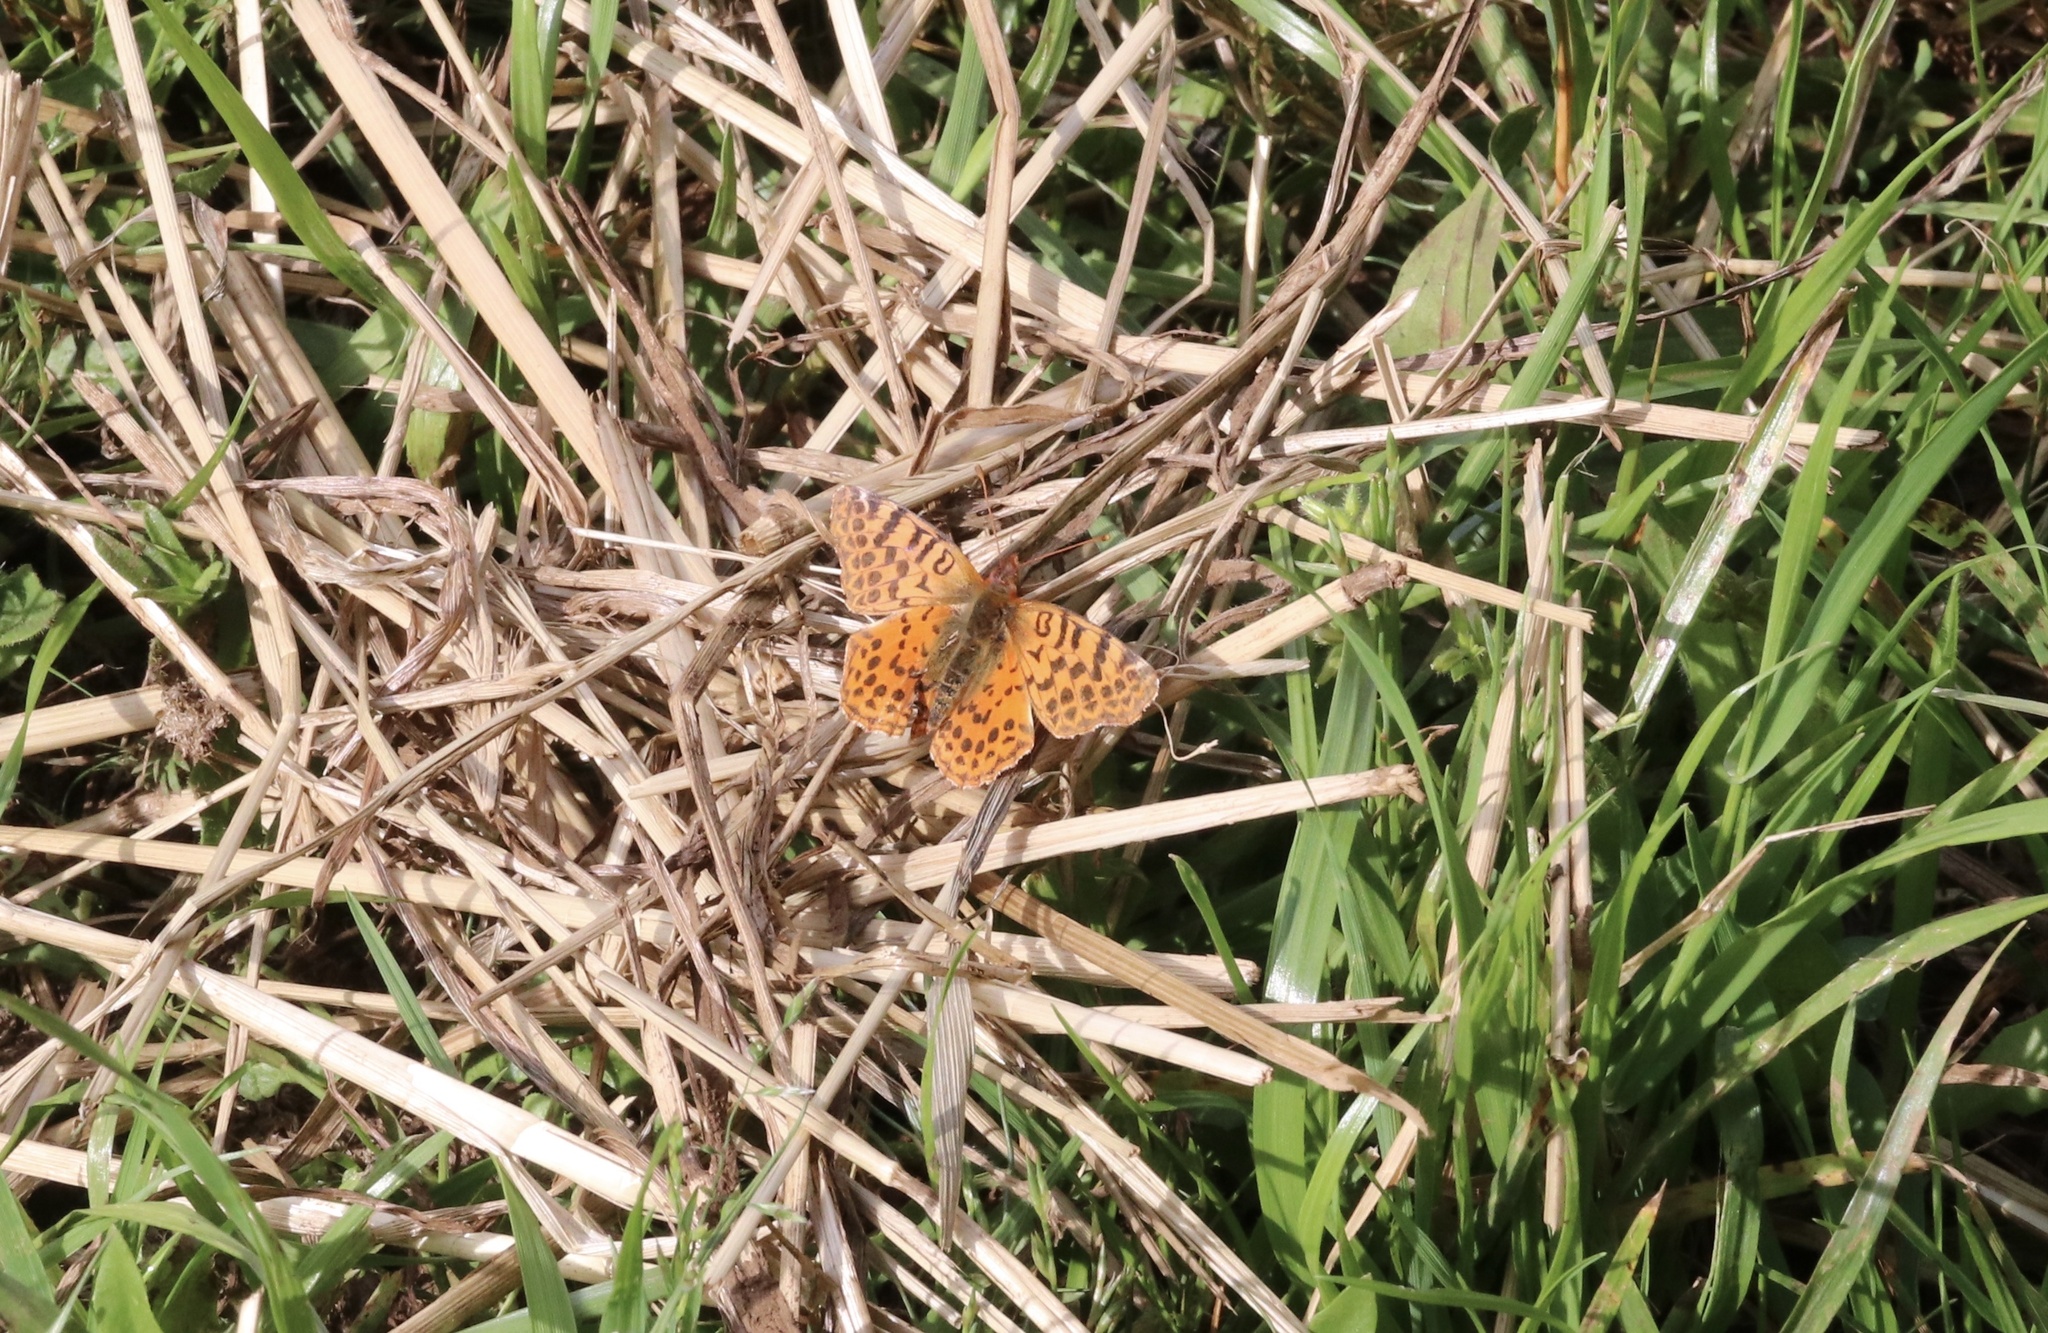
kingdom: Animalia
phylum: Arthropoda
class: Insecta
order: Lepidoptera
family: Nymphalidae
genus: Issoria
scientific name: Issoria Yramea cytheris
